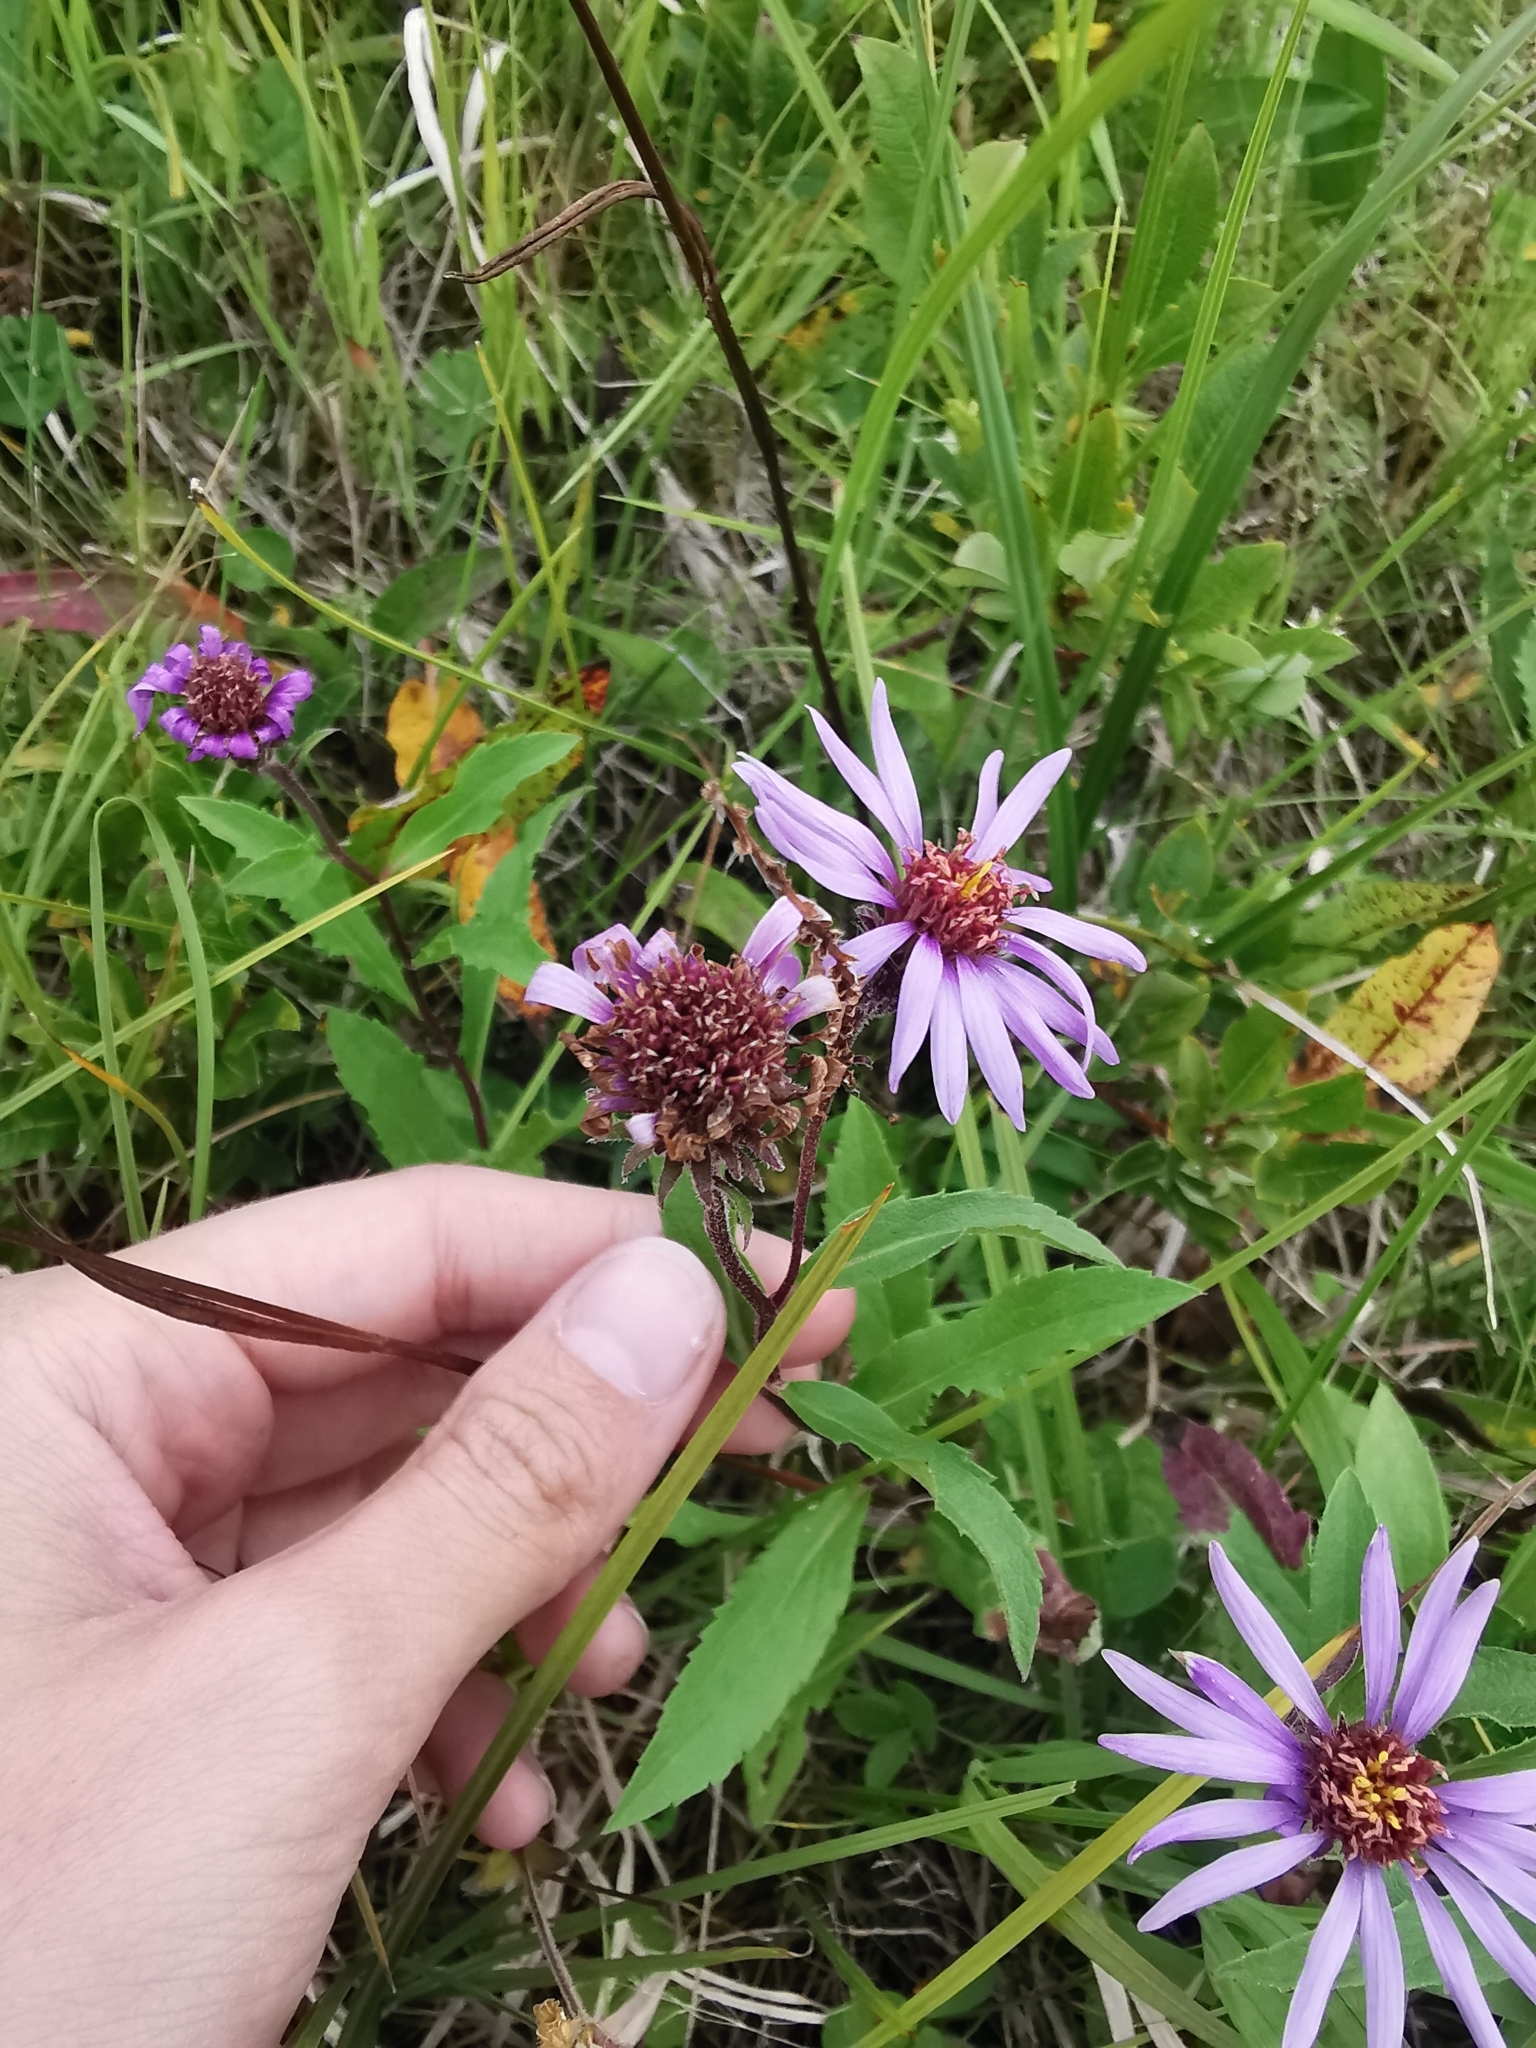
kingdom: Plantae
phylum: Tracheophyta
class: Magnoliopsida
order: Asterales
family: Asteraceae
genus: Eurybia
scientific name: Eurybia sibirica
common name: Arctic aster
